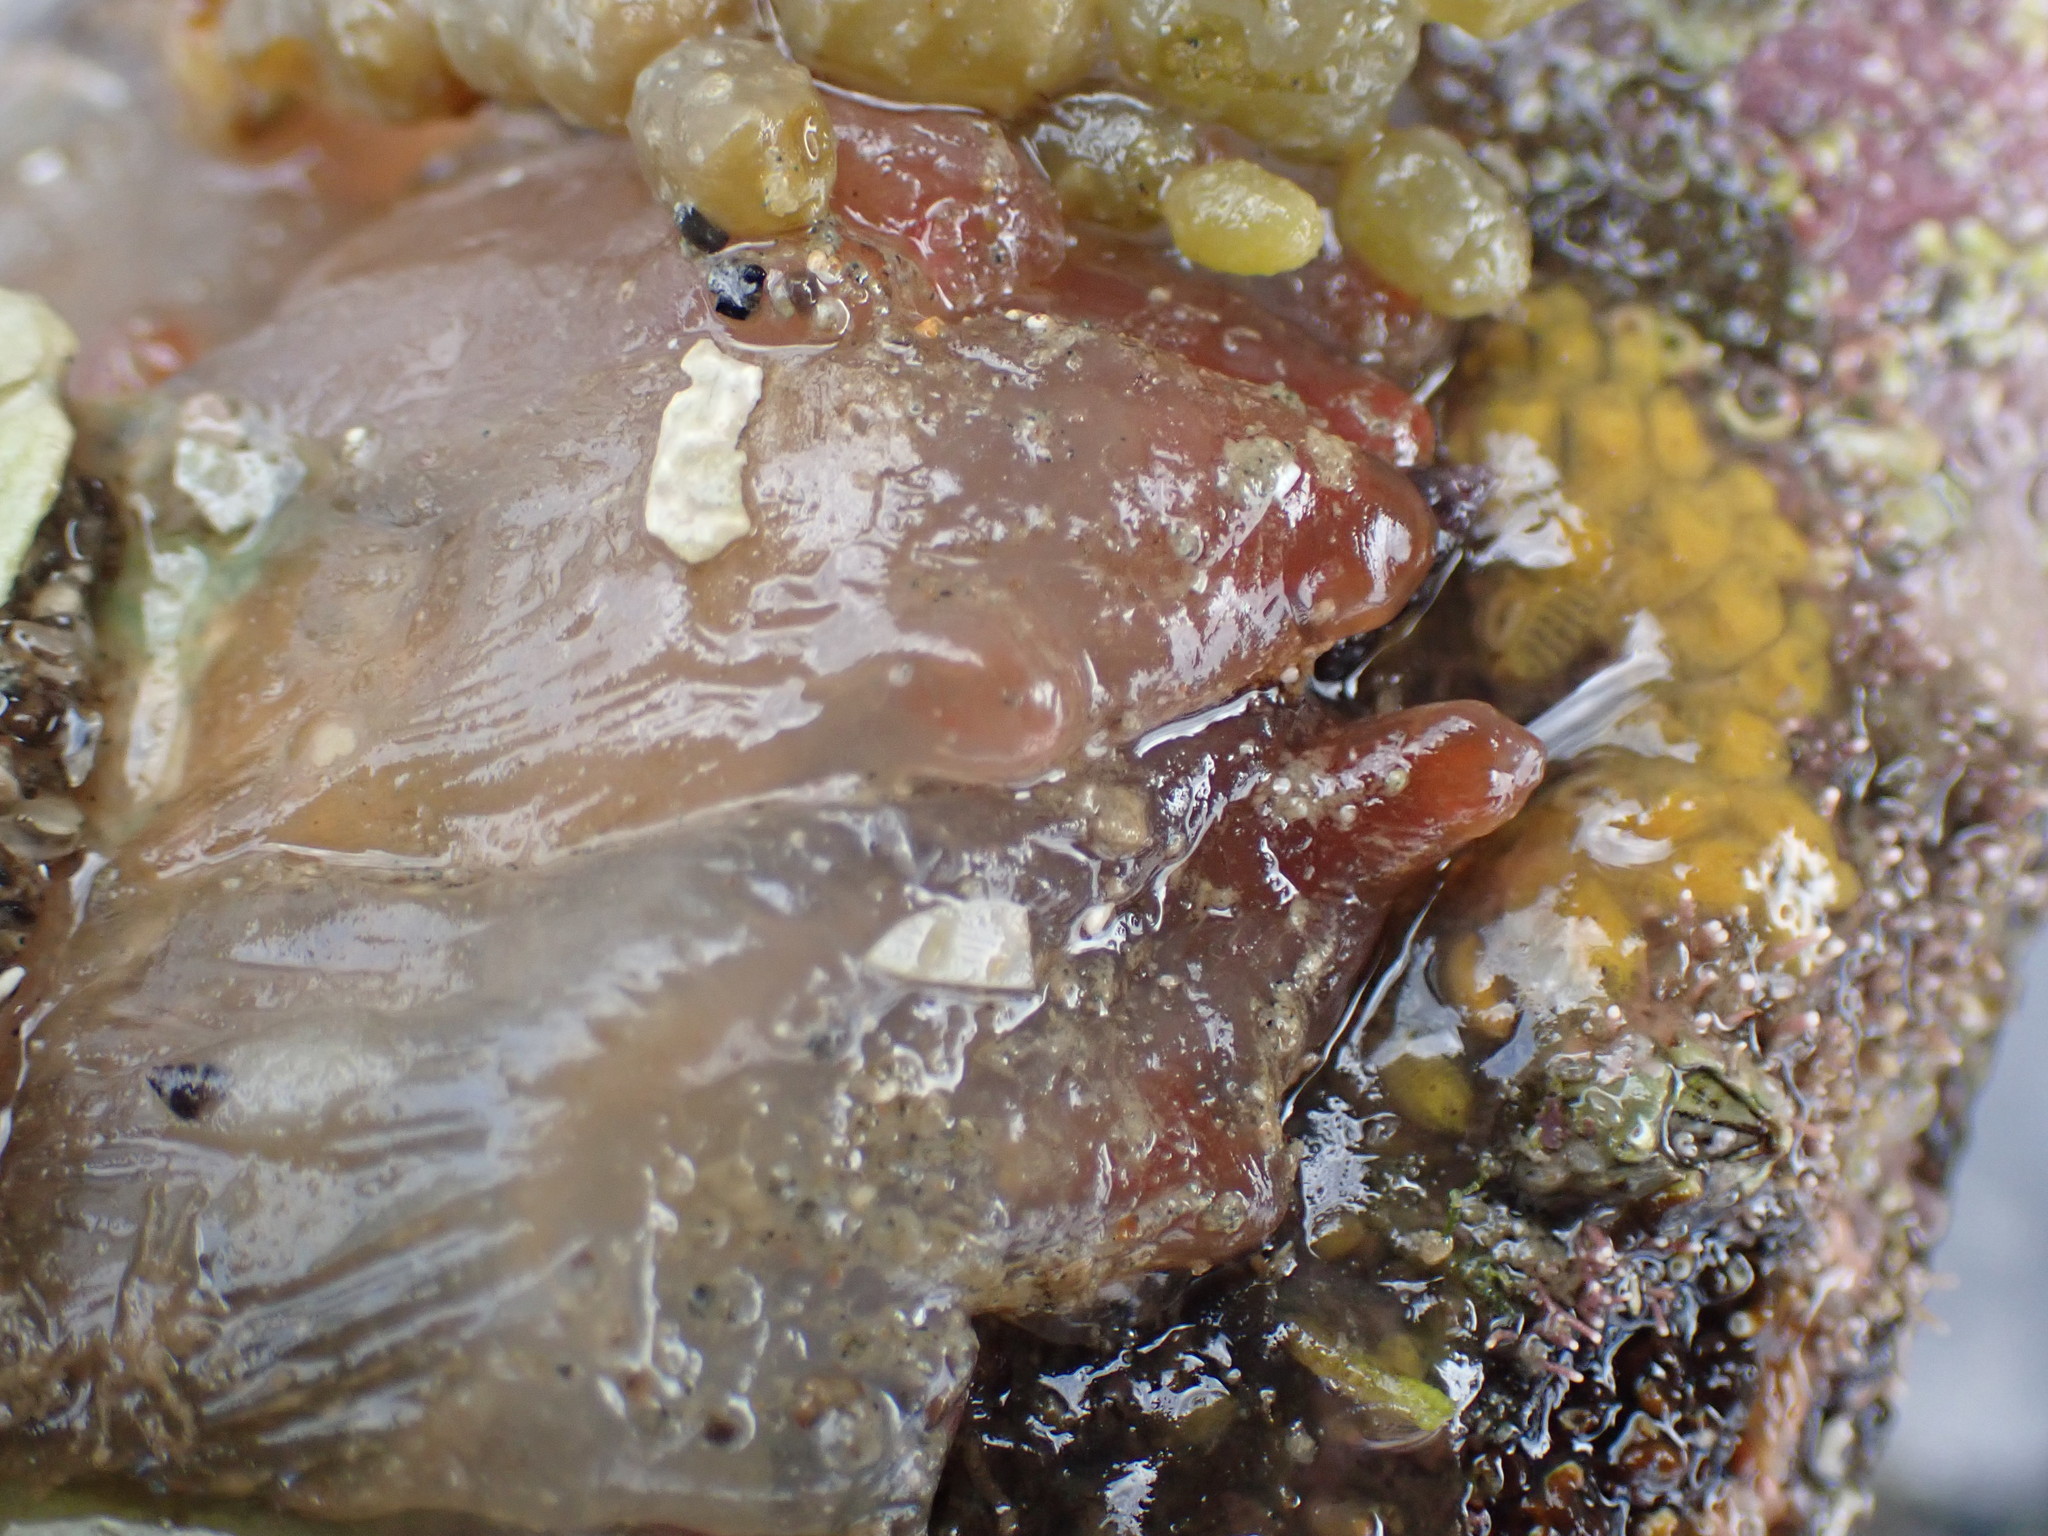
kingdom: Animalia
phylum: Chordata
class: Ascidiacea
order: Phlebobranchia
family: Corellidae
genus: Corella
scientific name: Corella eumyota
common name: Orange-tipped sea squirt
